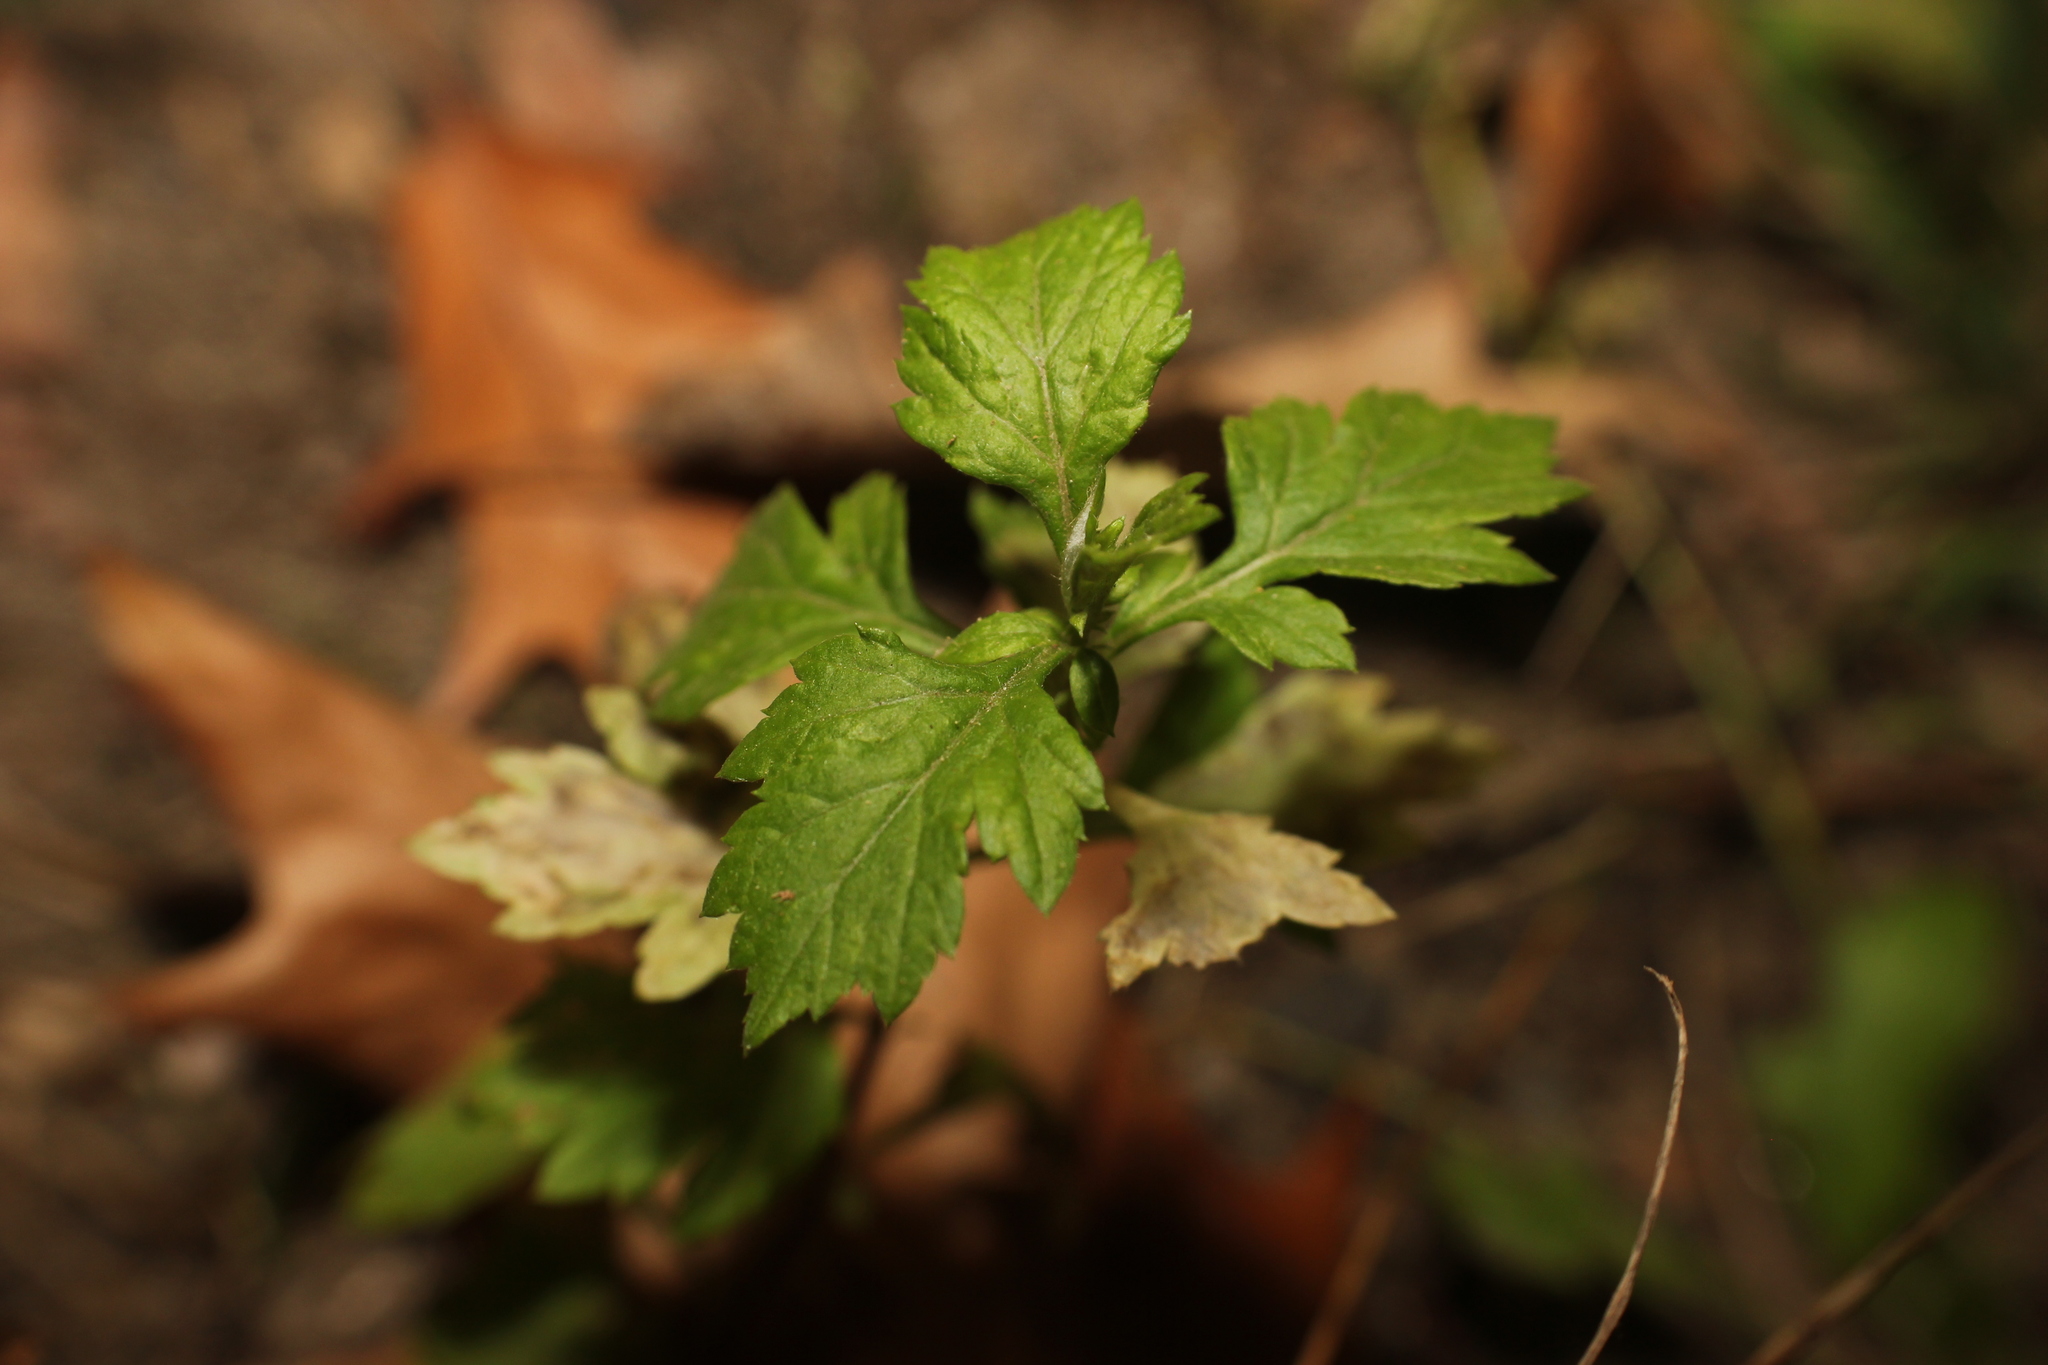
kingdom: Plantae
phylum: Tracheophyta
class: Magnoliopsida
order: Asterales
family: Asteraceae
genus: Artemisia
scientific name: Artemisia vulgaris
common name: Mugwort
